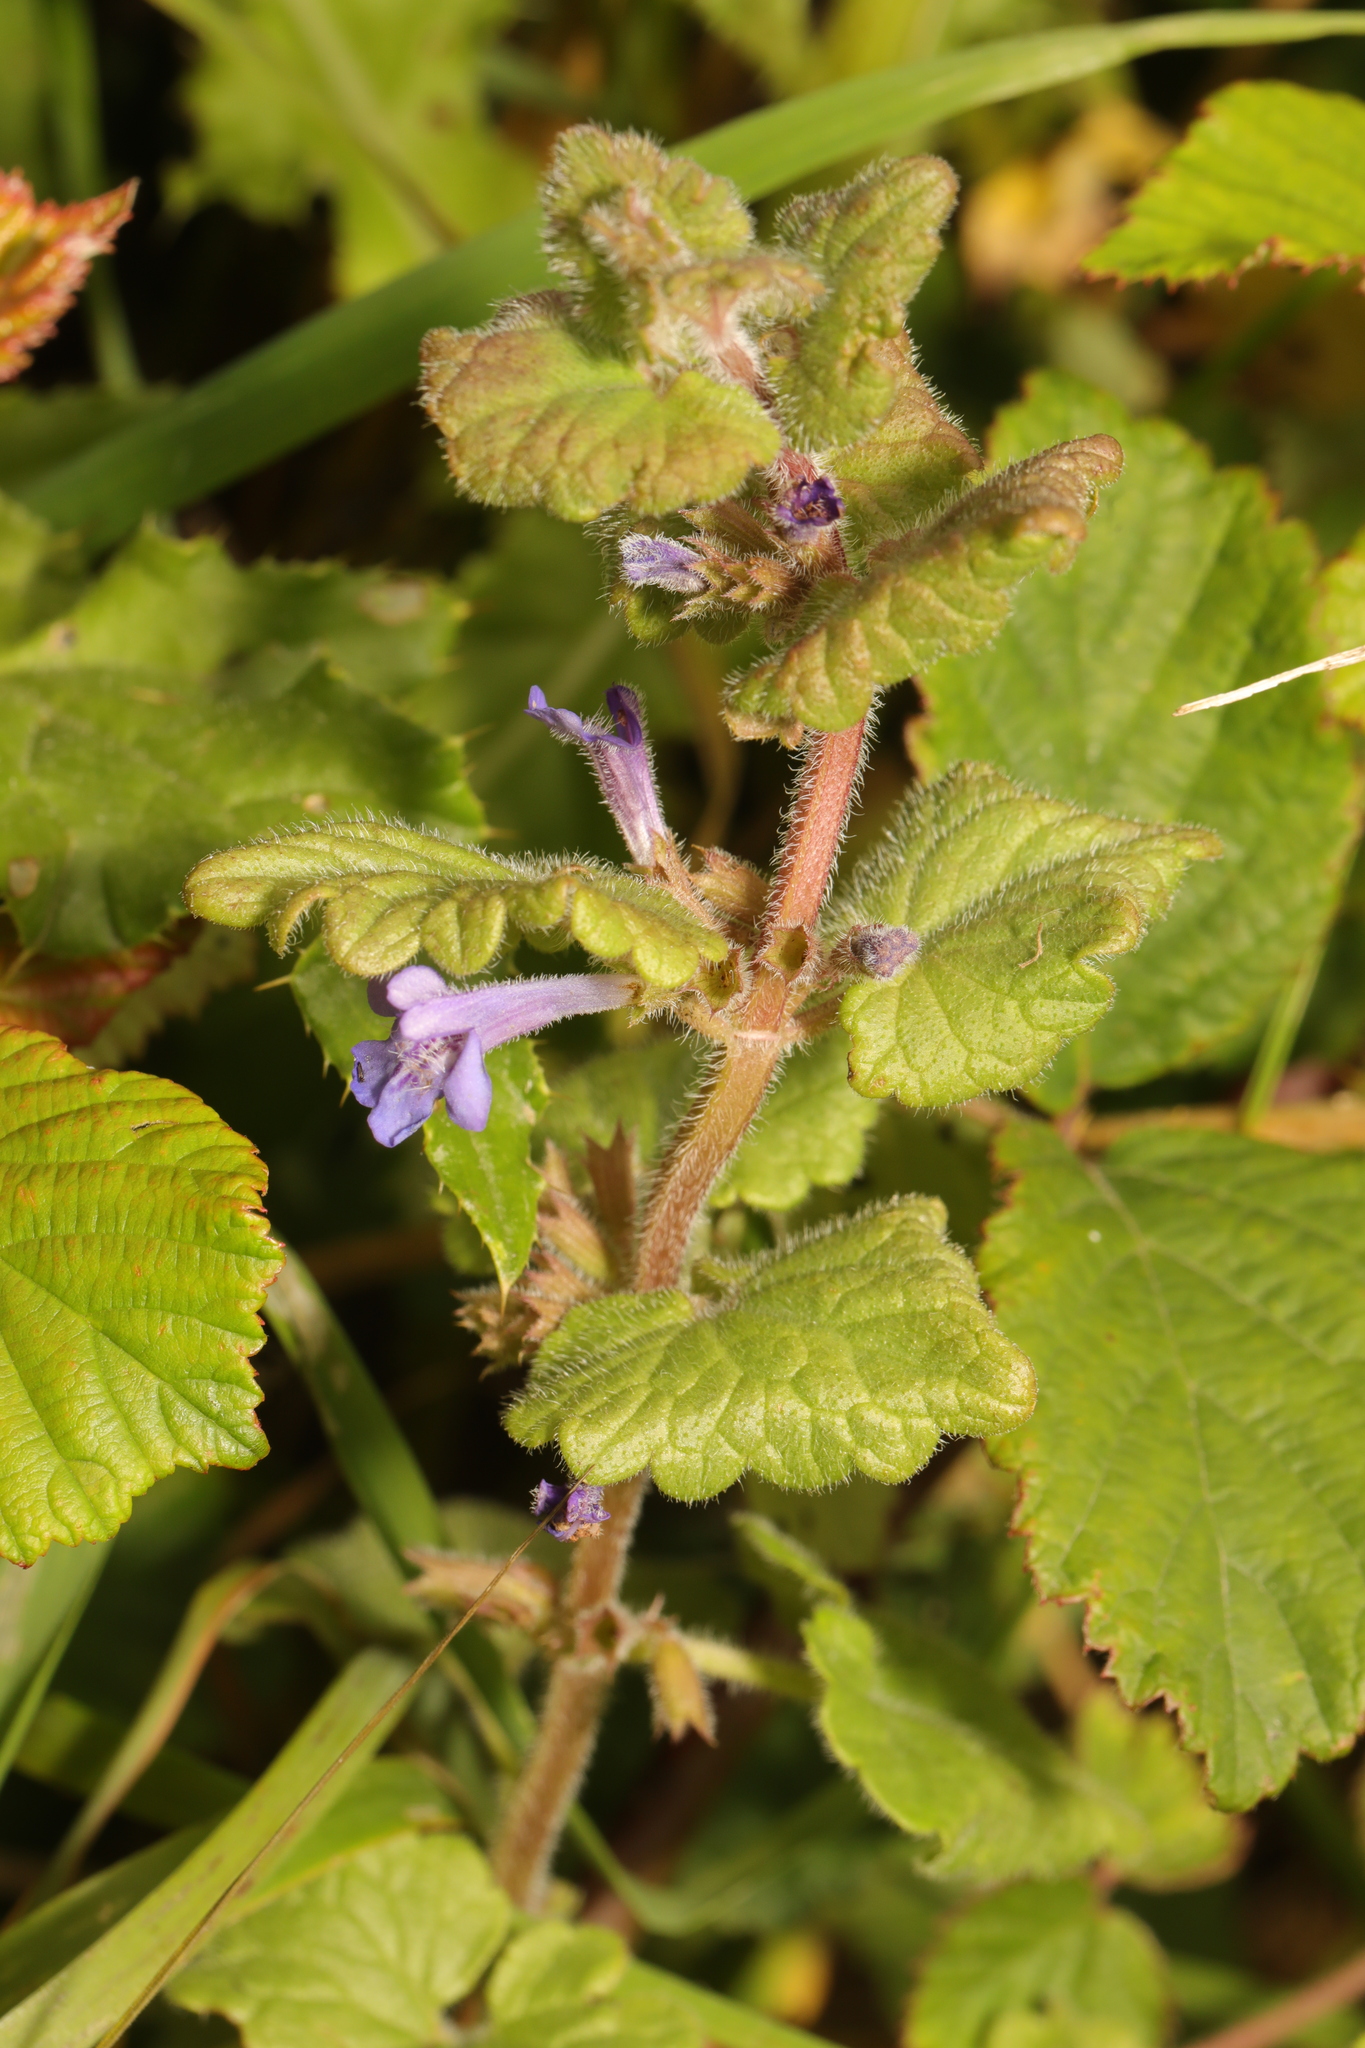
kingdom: Plantae
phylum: Tracheophyta
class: Magnoliopsida
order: Lamiales
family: Lamiaceae
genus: Glechoma
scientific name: Glechoma hederacea
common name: Ground ivy
